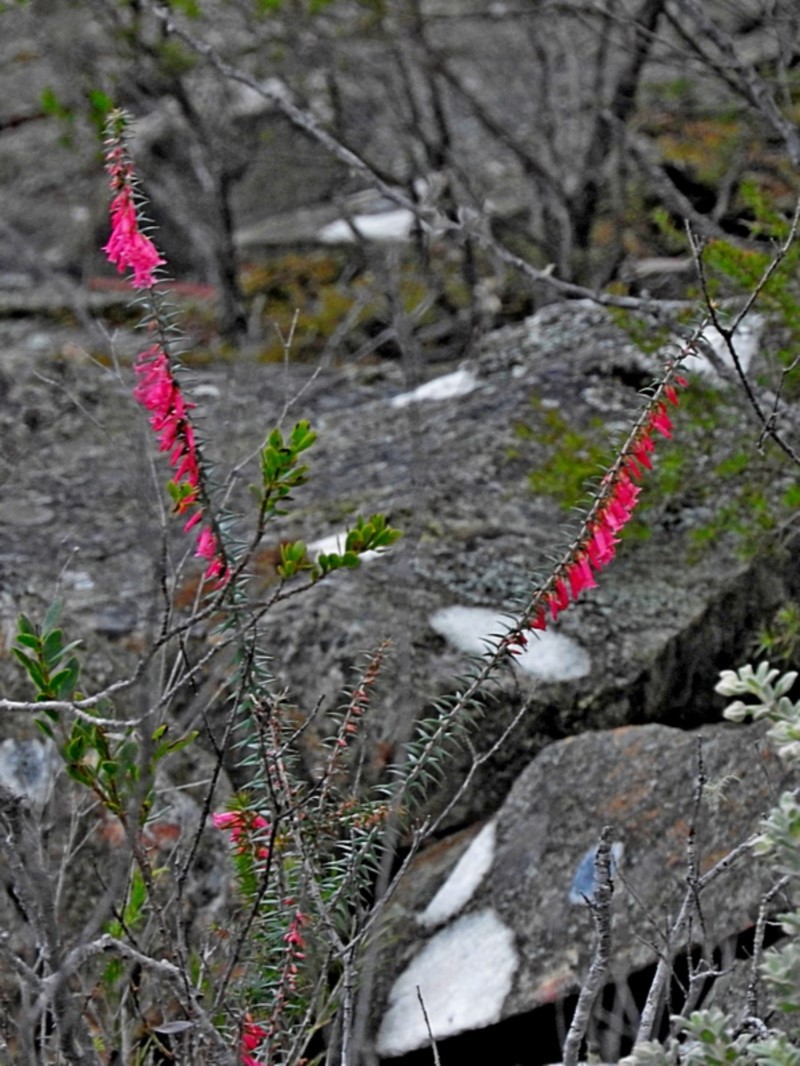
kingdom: Plantae
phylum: Tracheophyta
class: Magnoliopsida
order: Ericales
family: Ericaceae
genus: Epacris
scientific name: Epacris impressa
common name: Common-heath
